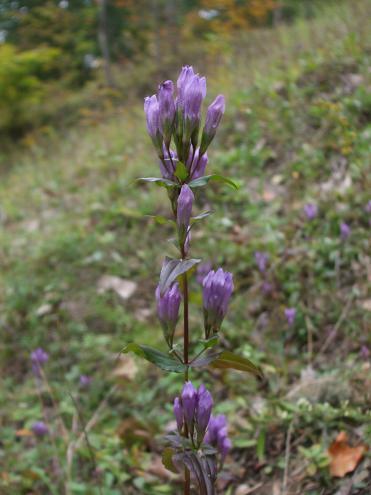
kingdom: Plantae
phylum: Tracheophyta
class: Magnoliopsida
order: Gentianales
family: Gentianaceae
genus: Gentianella
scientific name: Gentianella quinquefolia
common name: Agueweed
